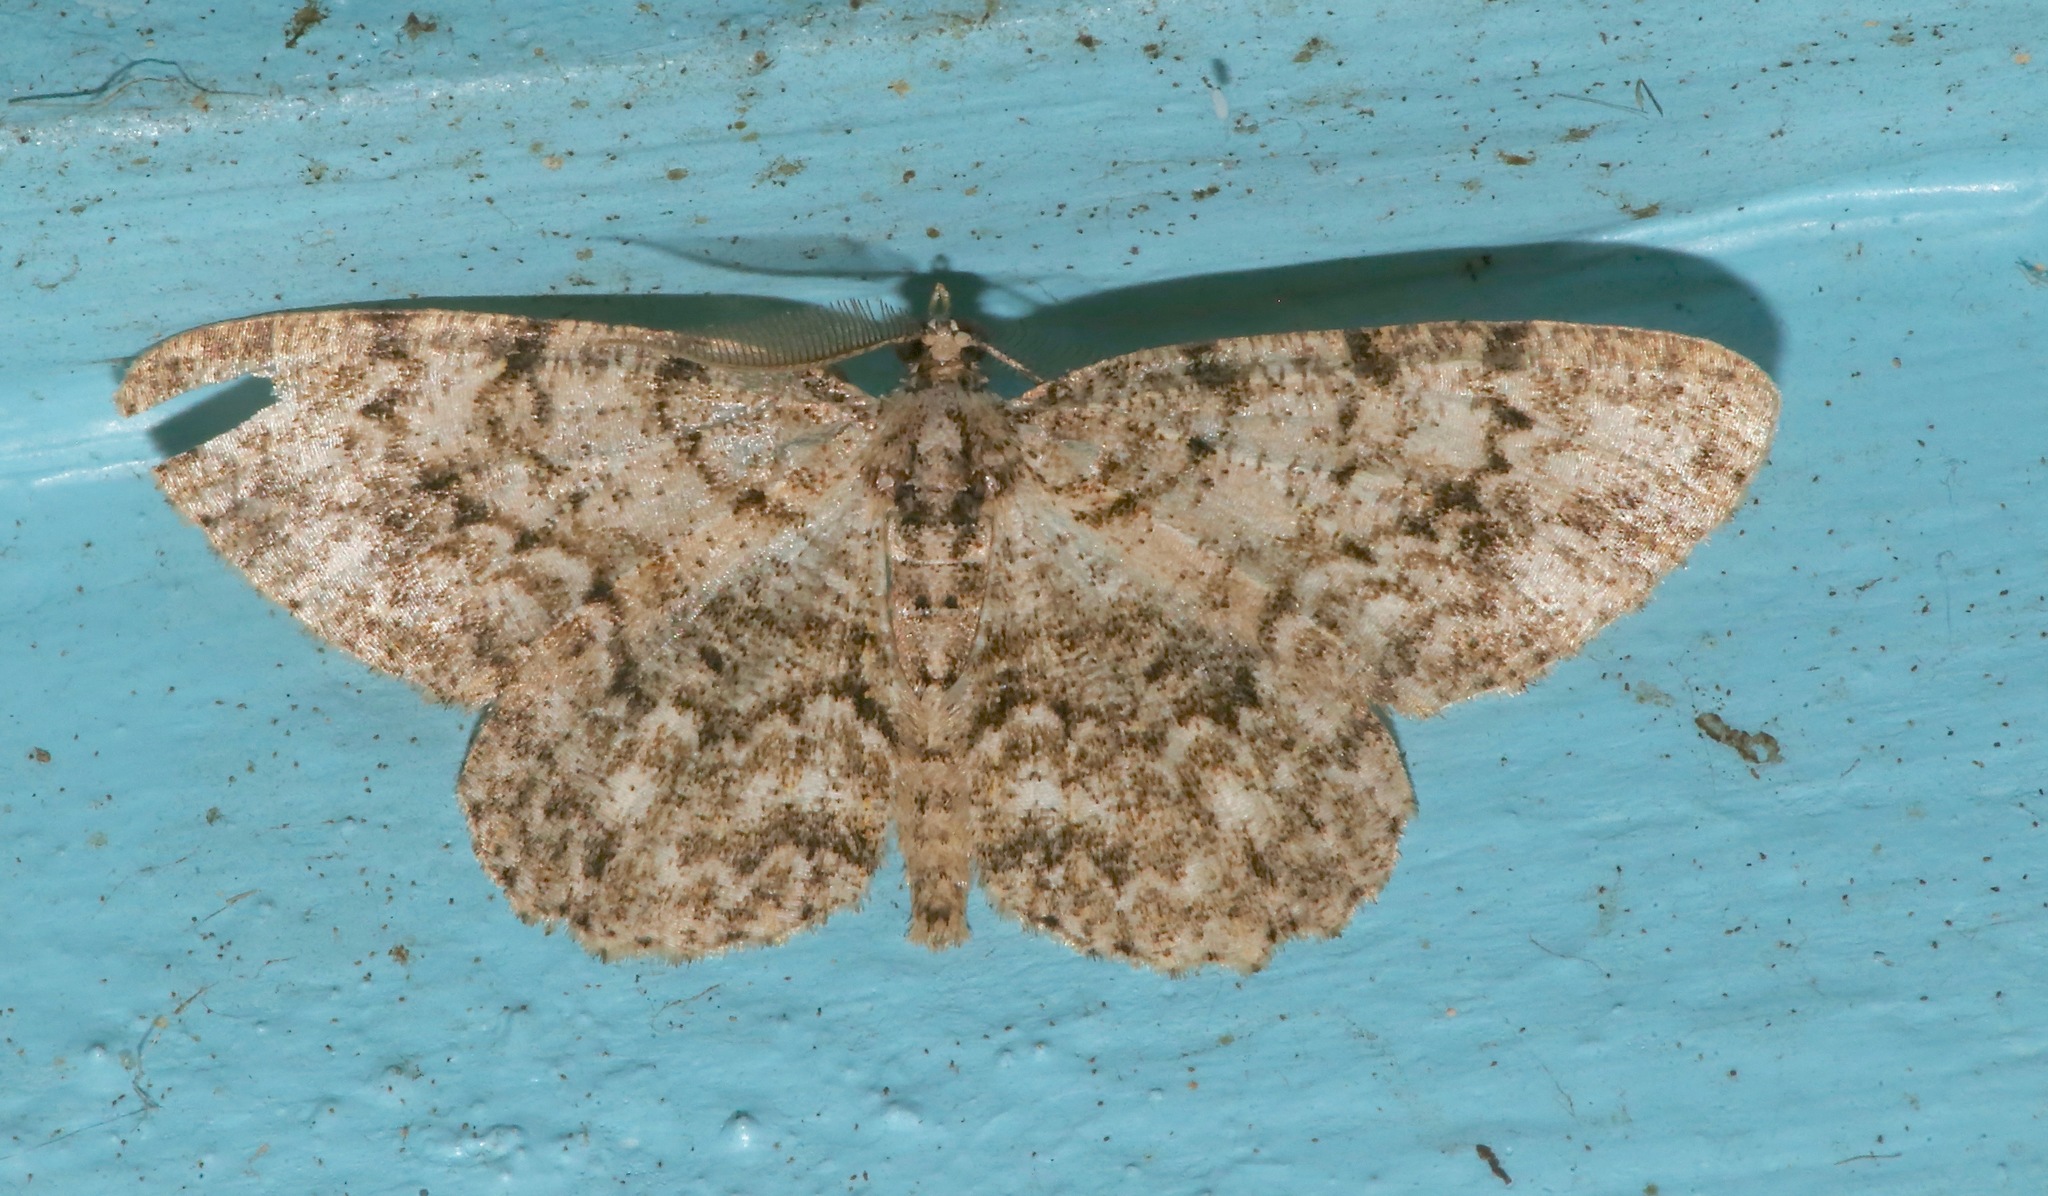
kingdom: Animalia
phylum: Arthropoda
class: Insecta
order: Lepidoptera
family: Geometridae
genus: Protoboarmia
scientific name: Protoboarmia porcelaria
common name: Porcelain gray
